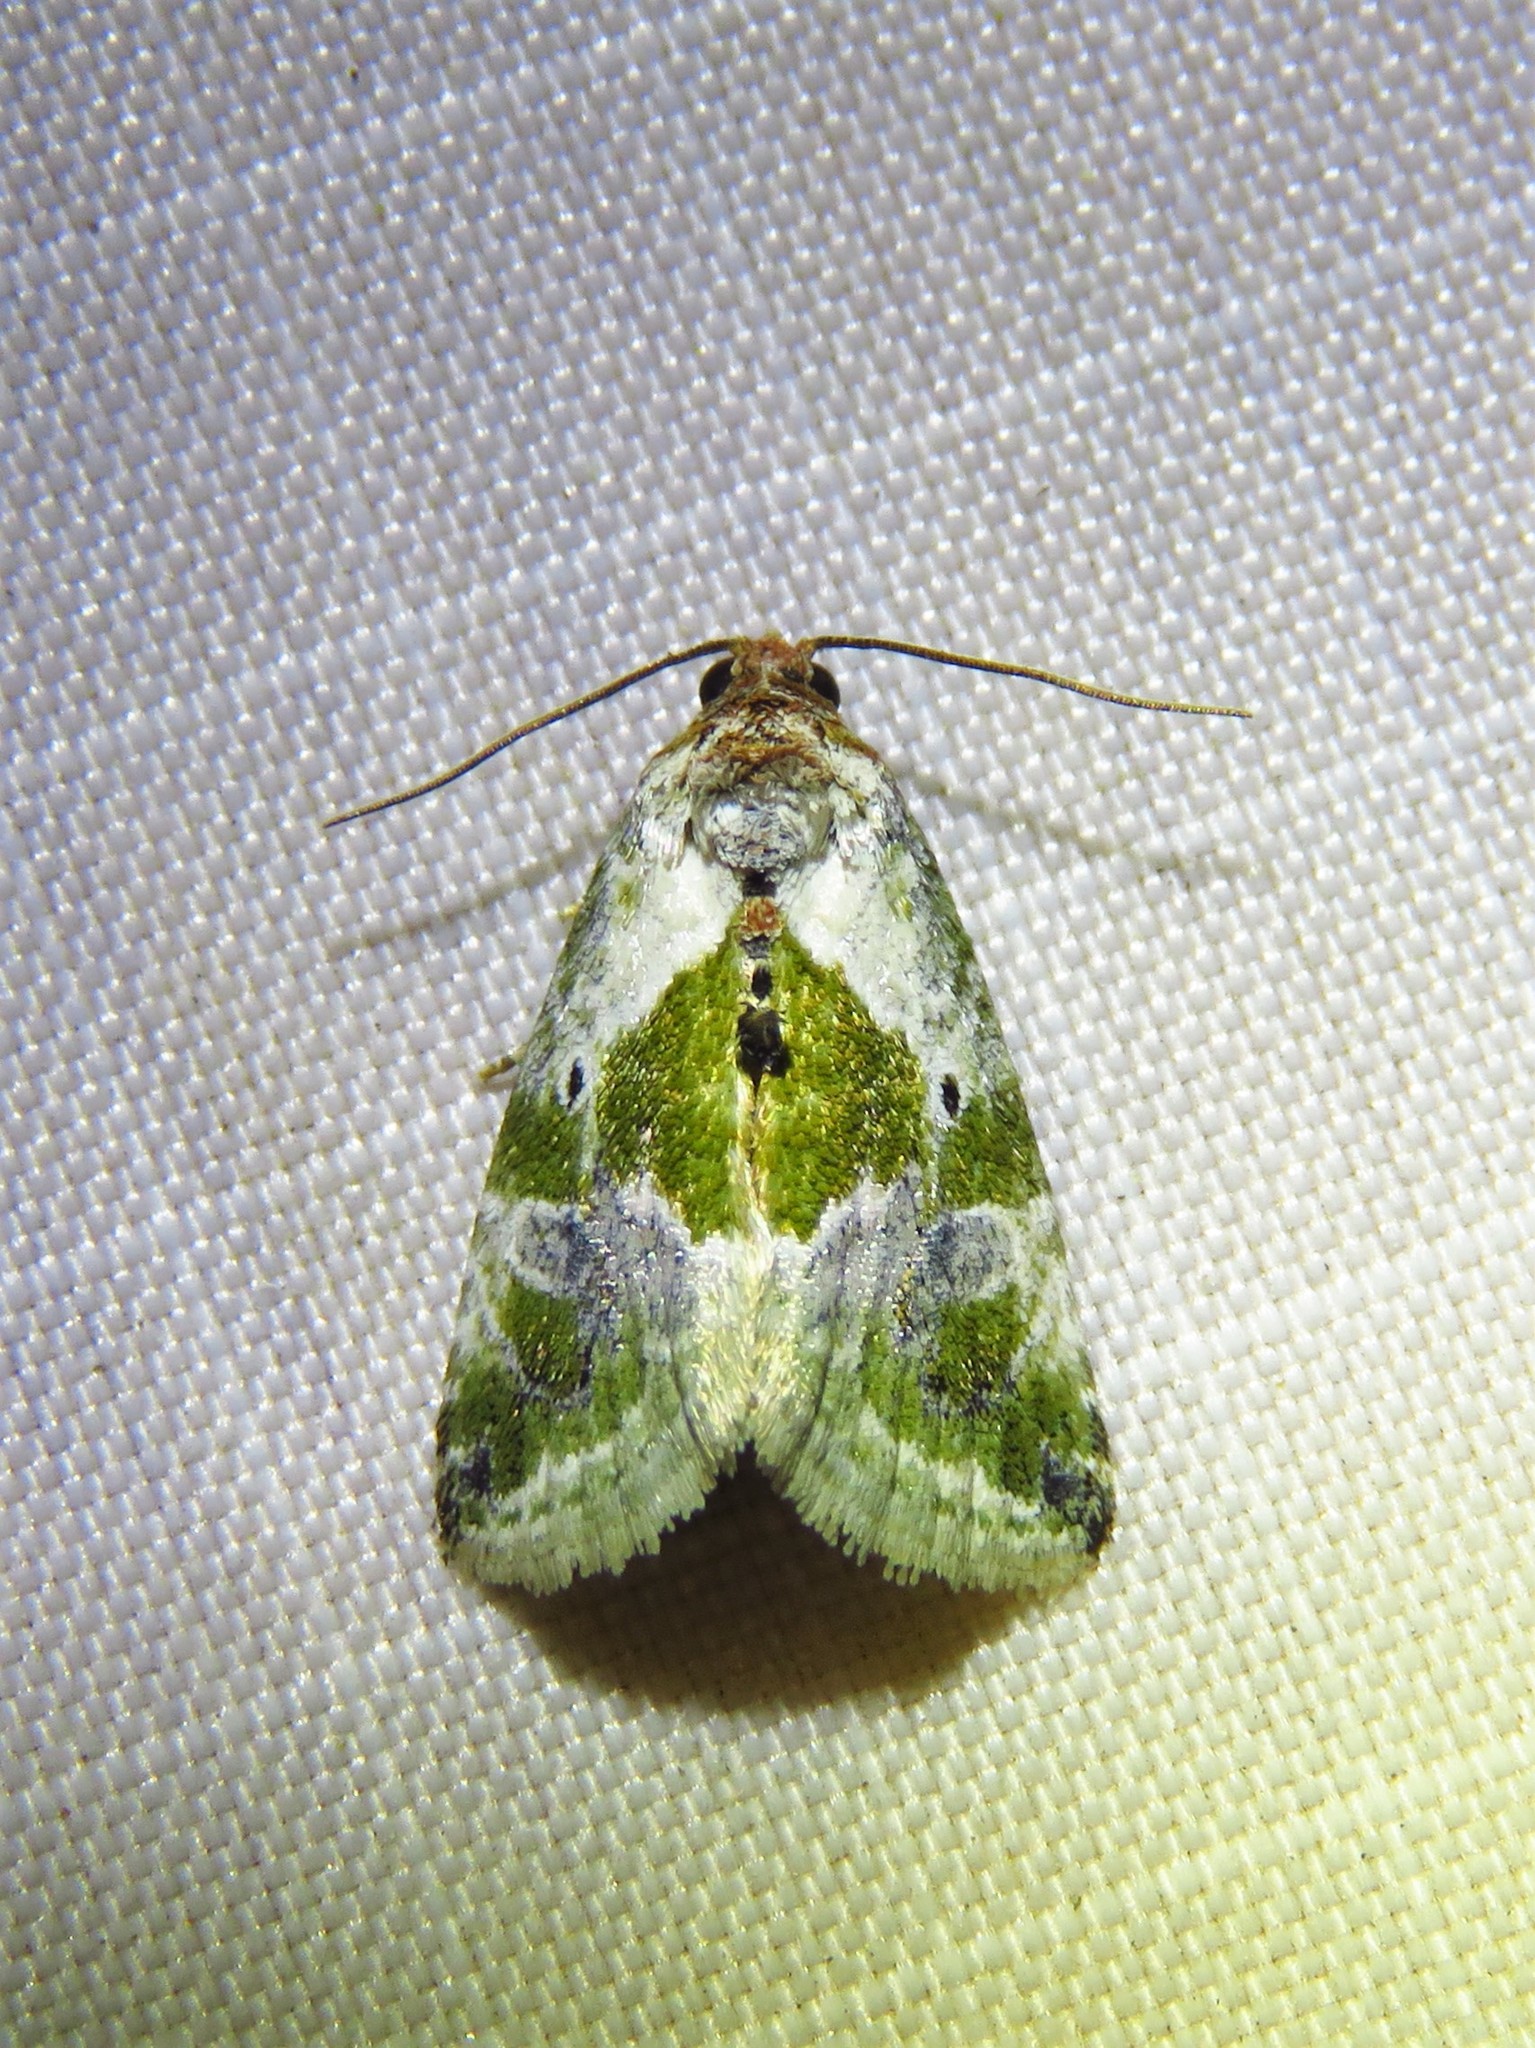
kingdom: Animalia
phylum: Arthropoda
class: Insecta
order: Lepidoptera
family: Noctuidae
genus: Maliattha
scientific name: Maliattha synochitis
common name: Black-dotted glyph
